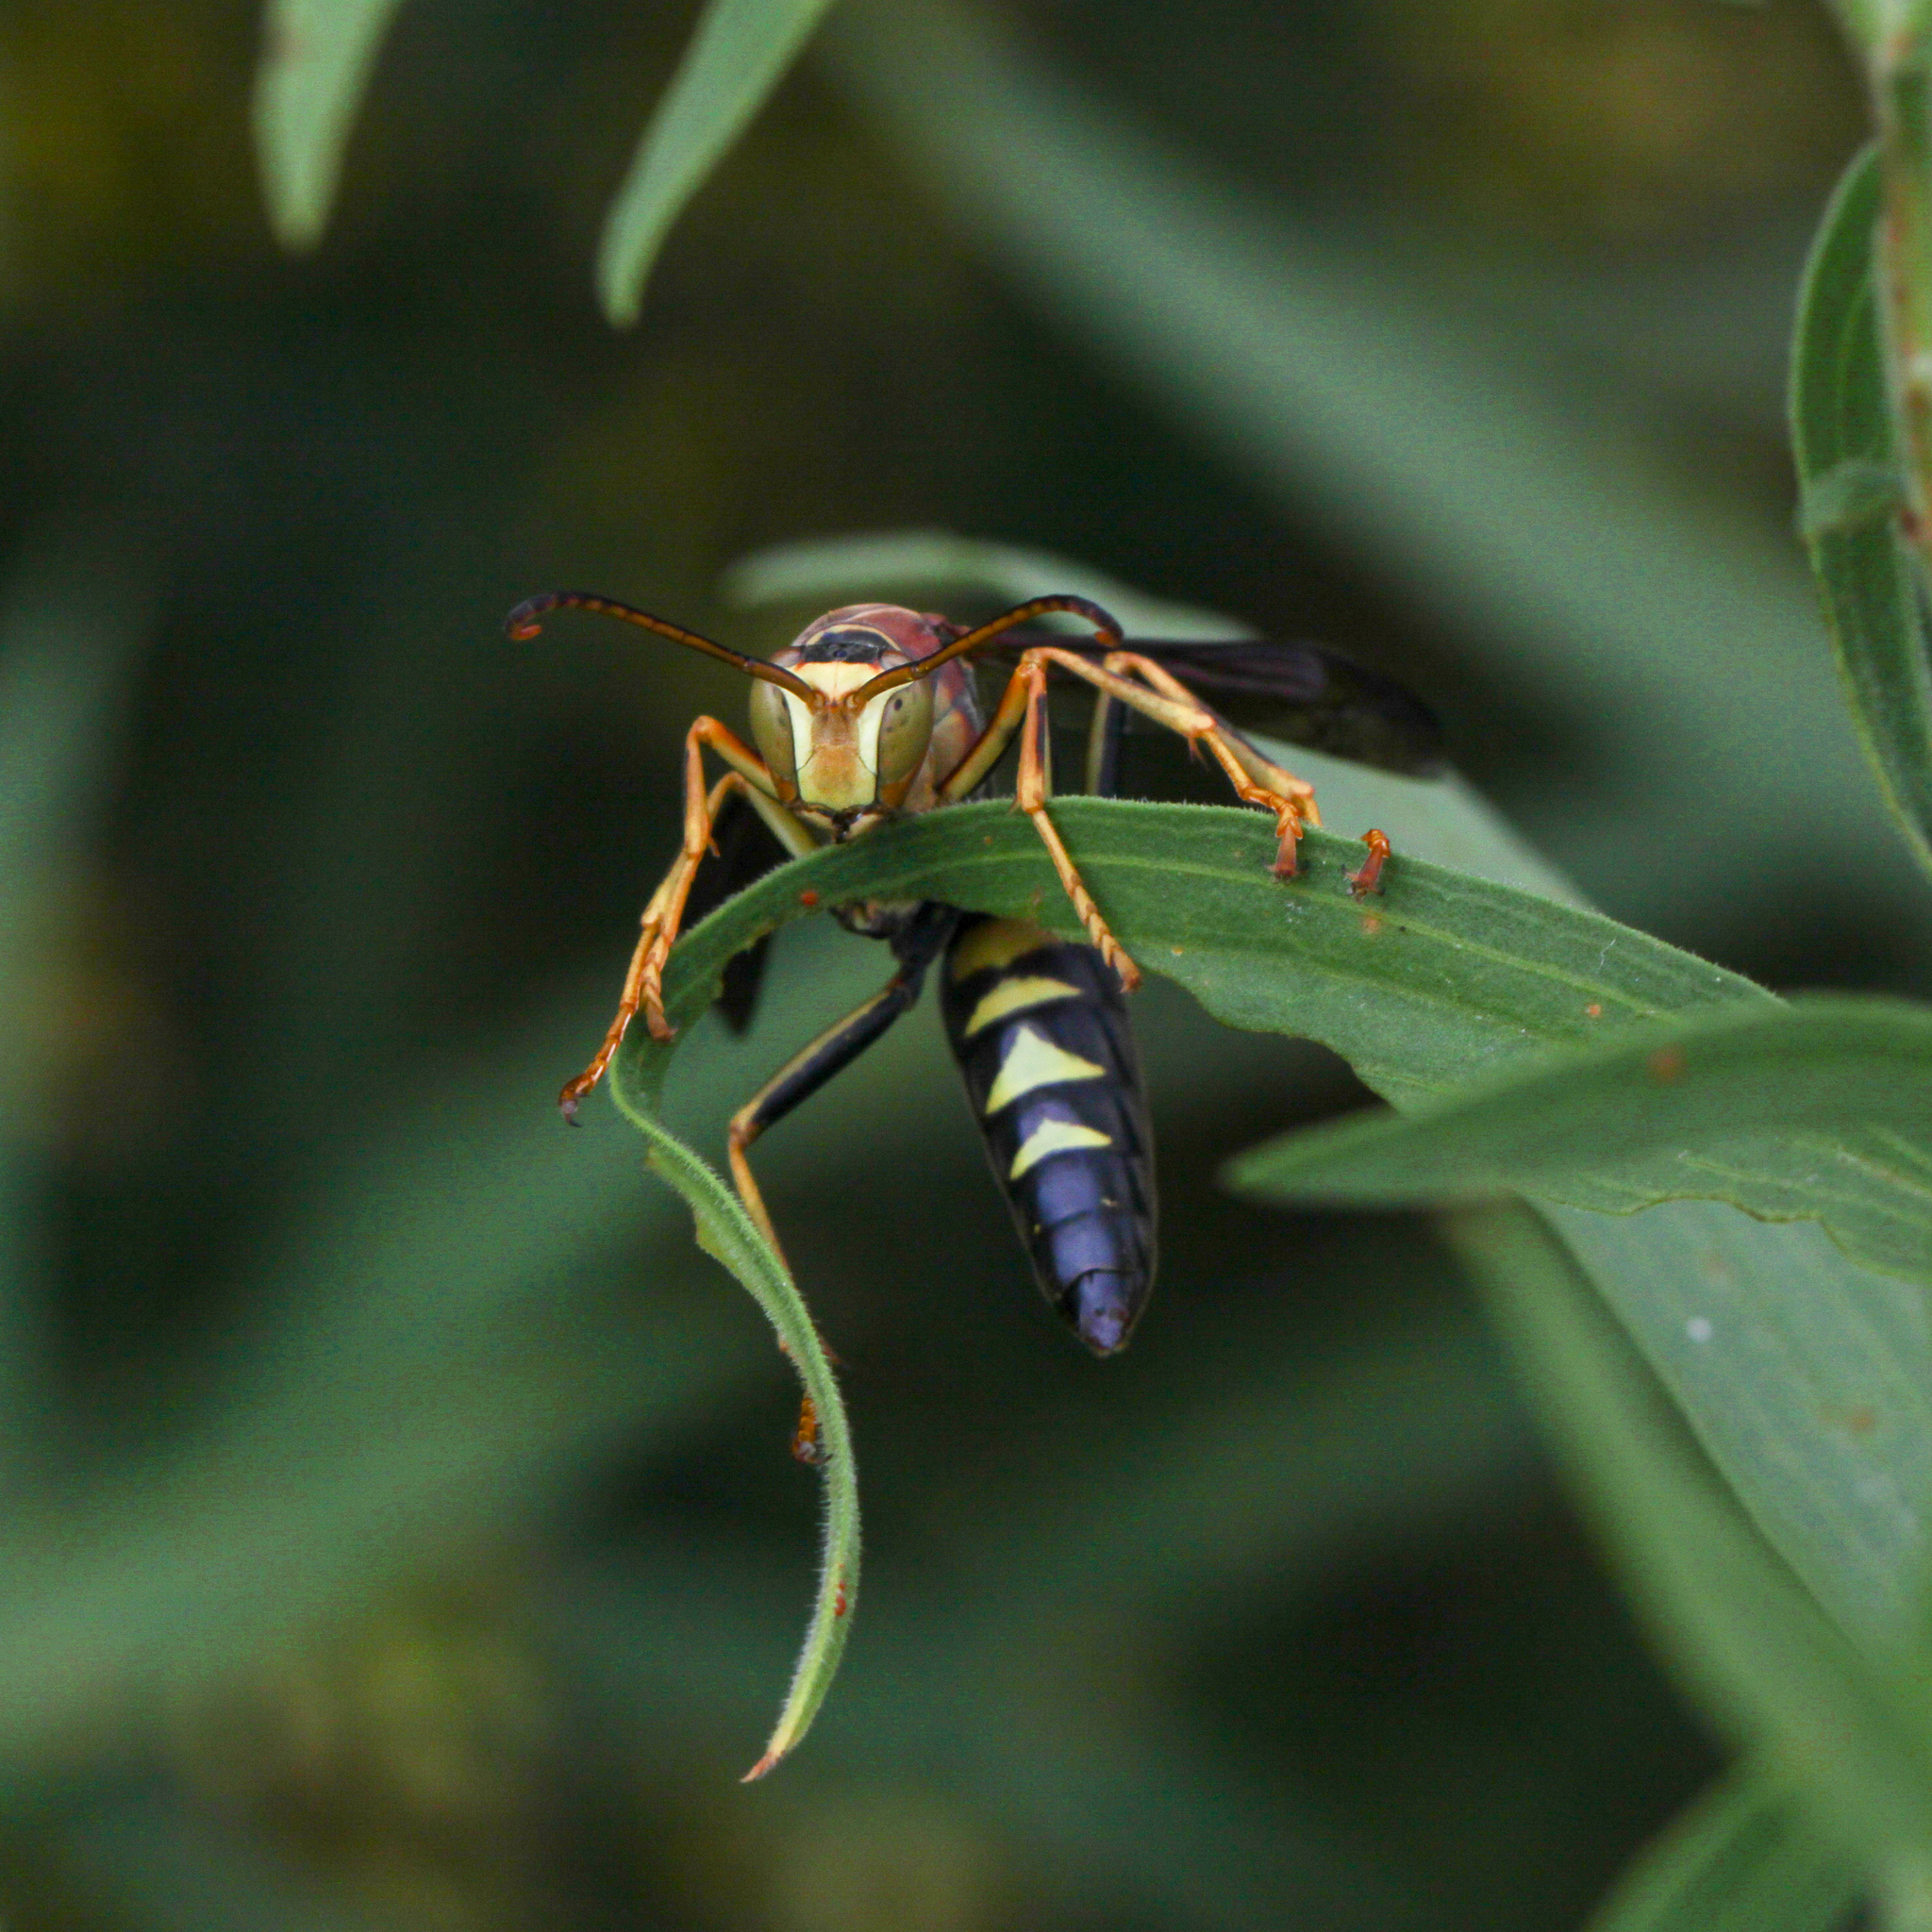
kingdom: Animalia
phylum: Arthropoda
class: Insecta
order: Hymenoptera
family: Eumenidae
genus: Polistes
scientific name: Polistes metricus
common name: Metric paper wasp
